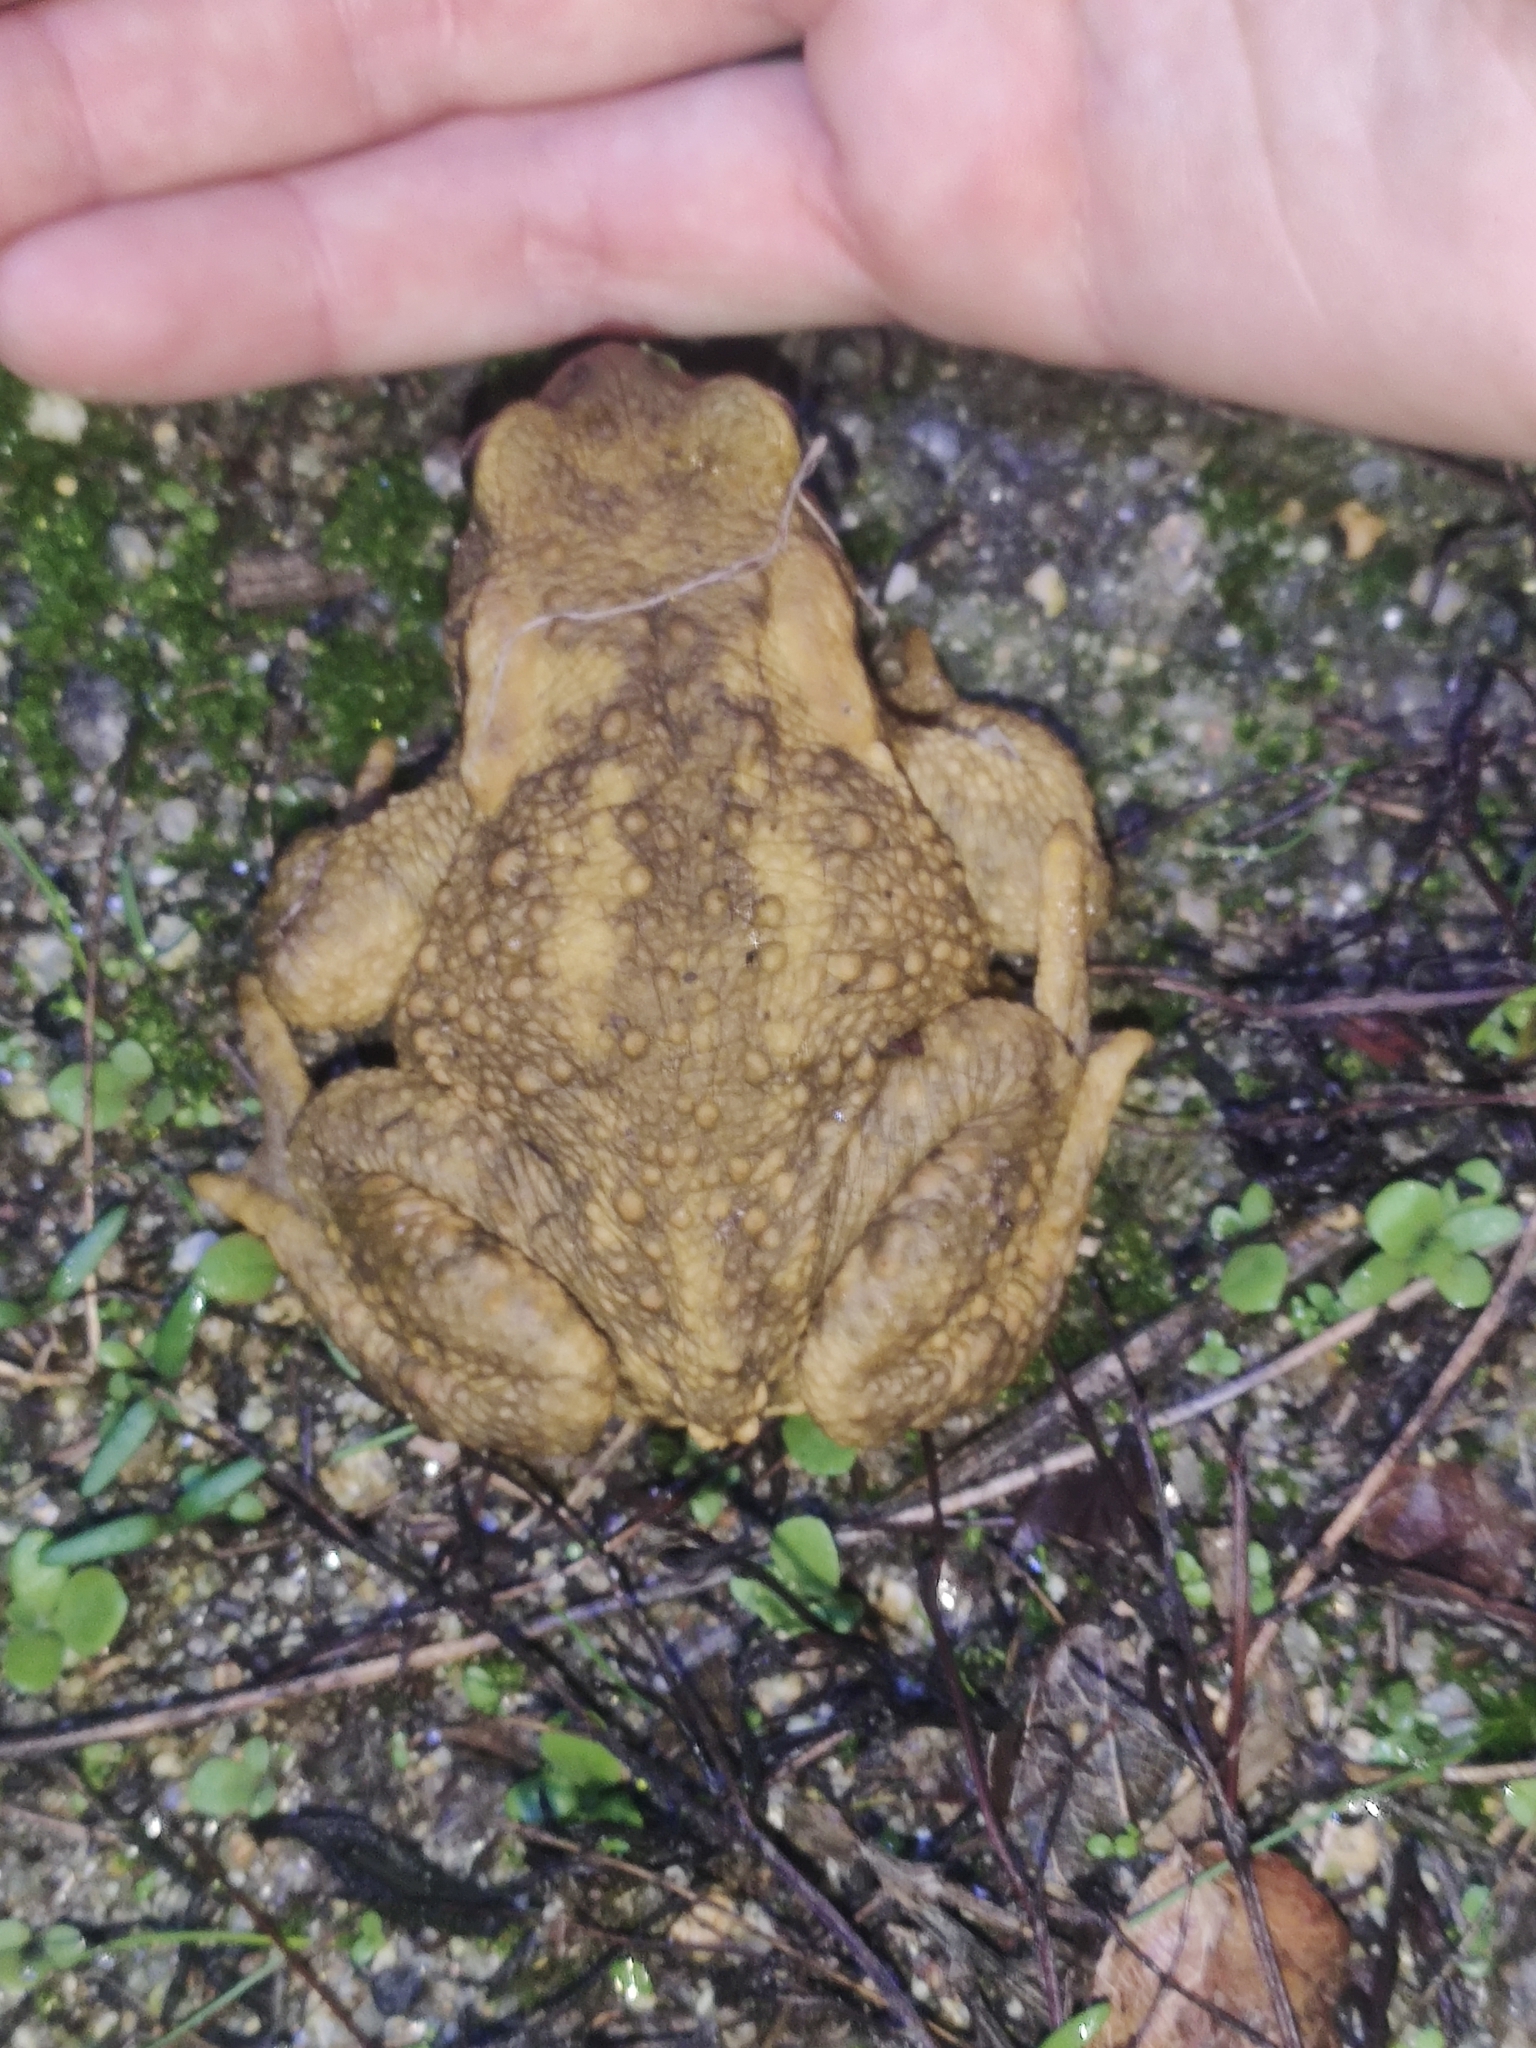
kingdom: Animalia
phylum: Chordata
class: Amphibia
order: Anura
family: Bufonidae
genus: Bufo
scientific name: Bufo spinosus
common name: Western common toad
